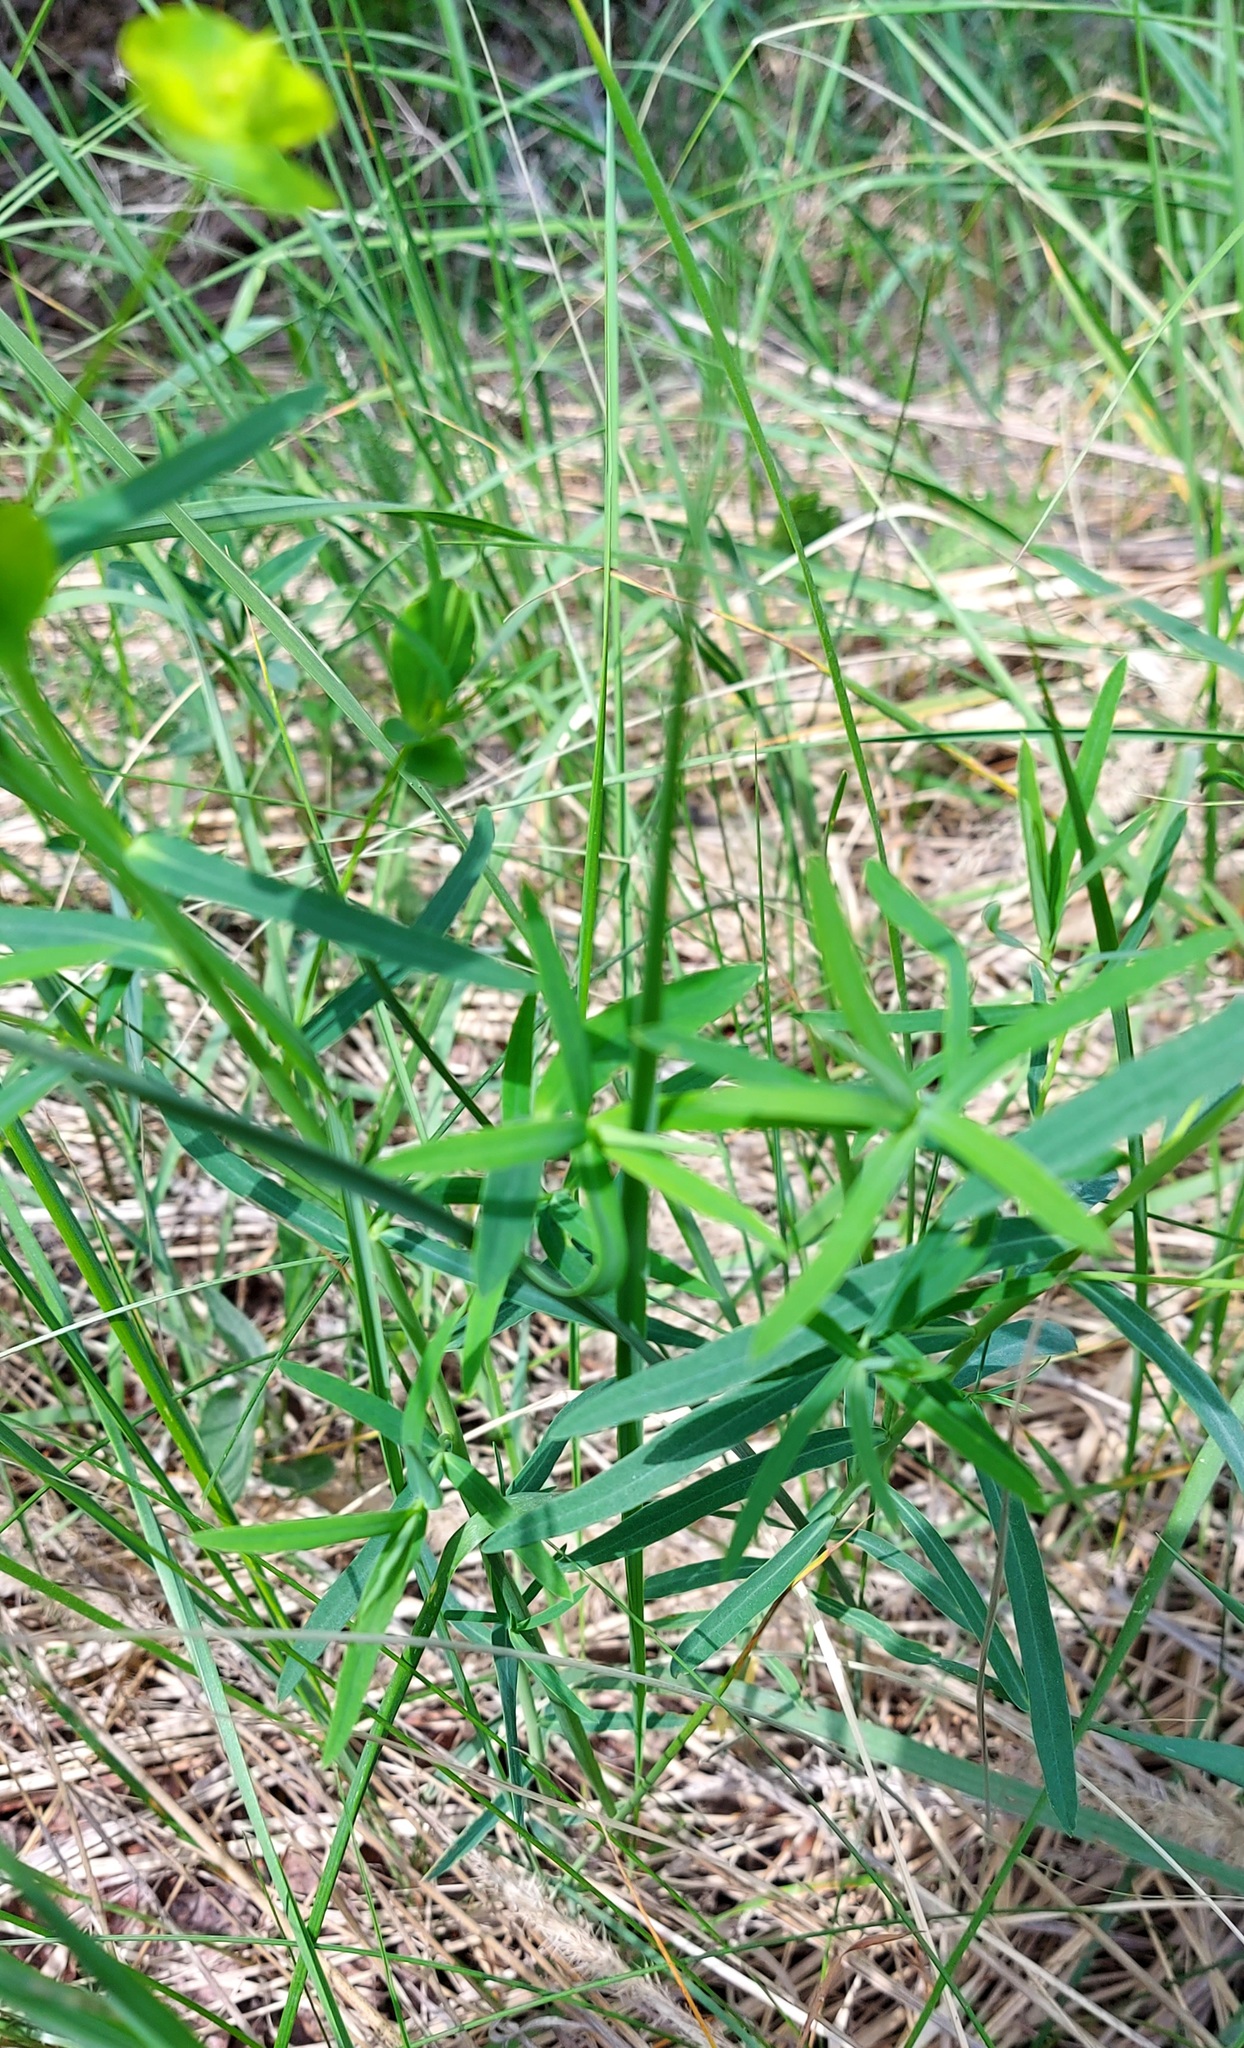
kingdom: Plantae
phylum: Tracheophyta
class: Magnoliopsida
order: Malpighiales
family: Euphorbiaceae
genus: Euphorbia
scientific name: Euphorbia virgata
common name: Leafy spurge
